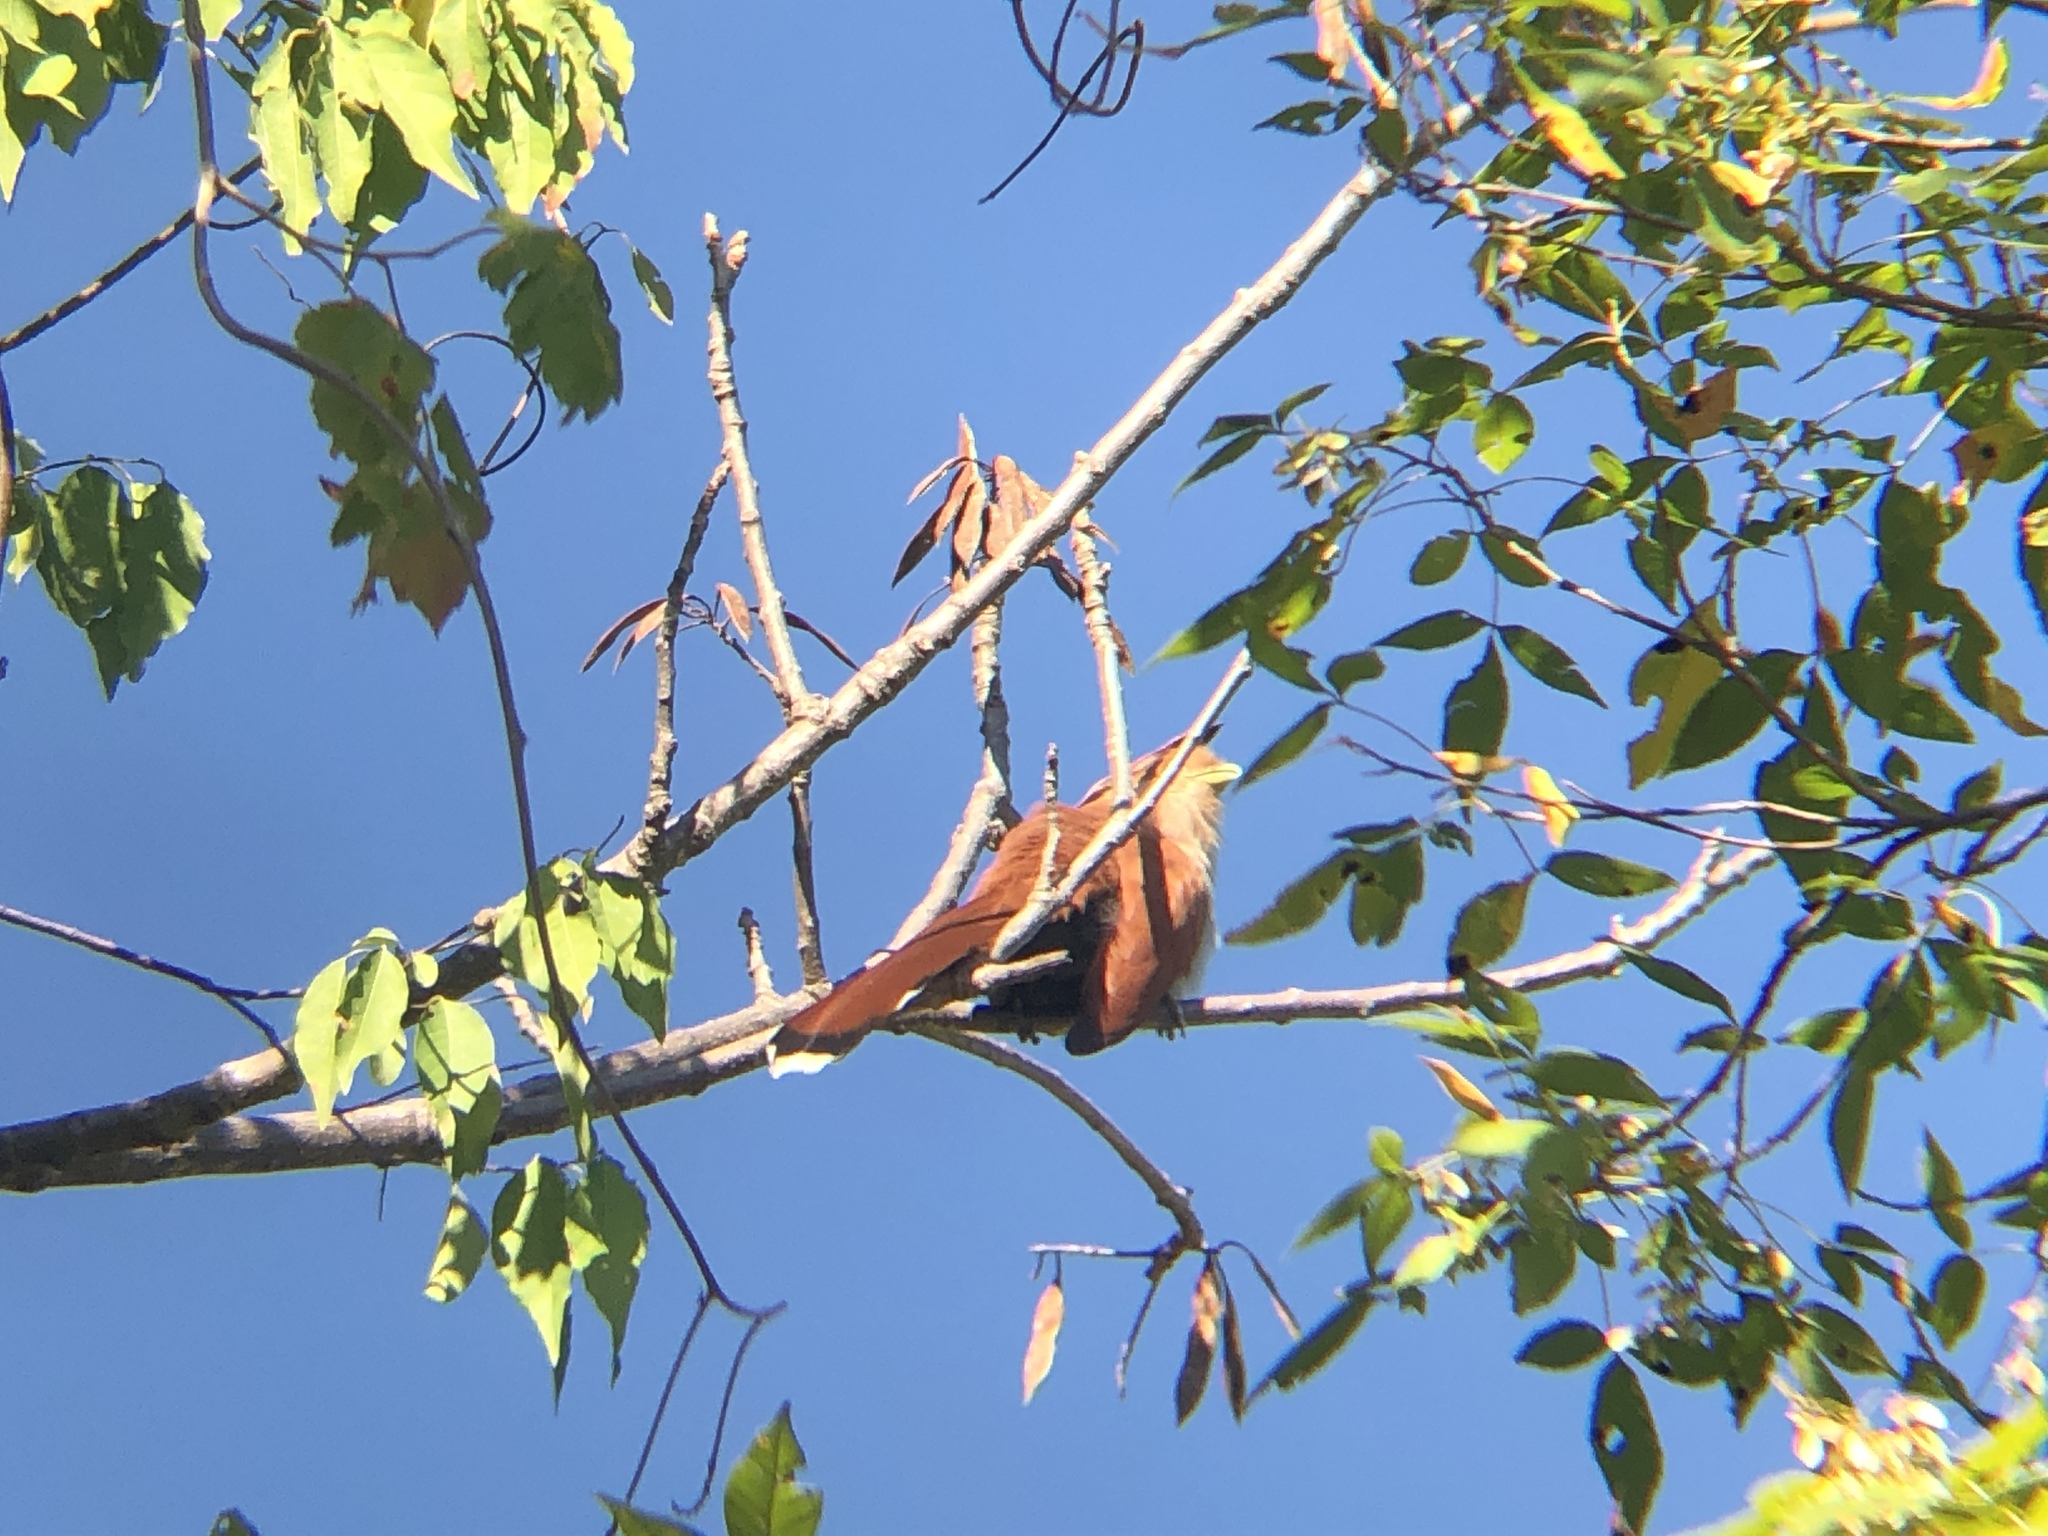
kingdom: Animalia
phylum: Chordata
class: Aves
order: Cuculiformes
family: Cuculidae
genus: Piaya
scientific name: Piaya cayana
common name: Squirrel cuckoo
